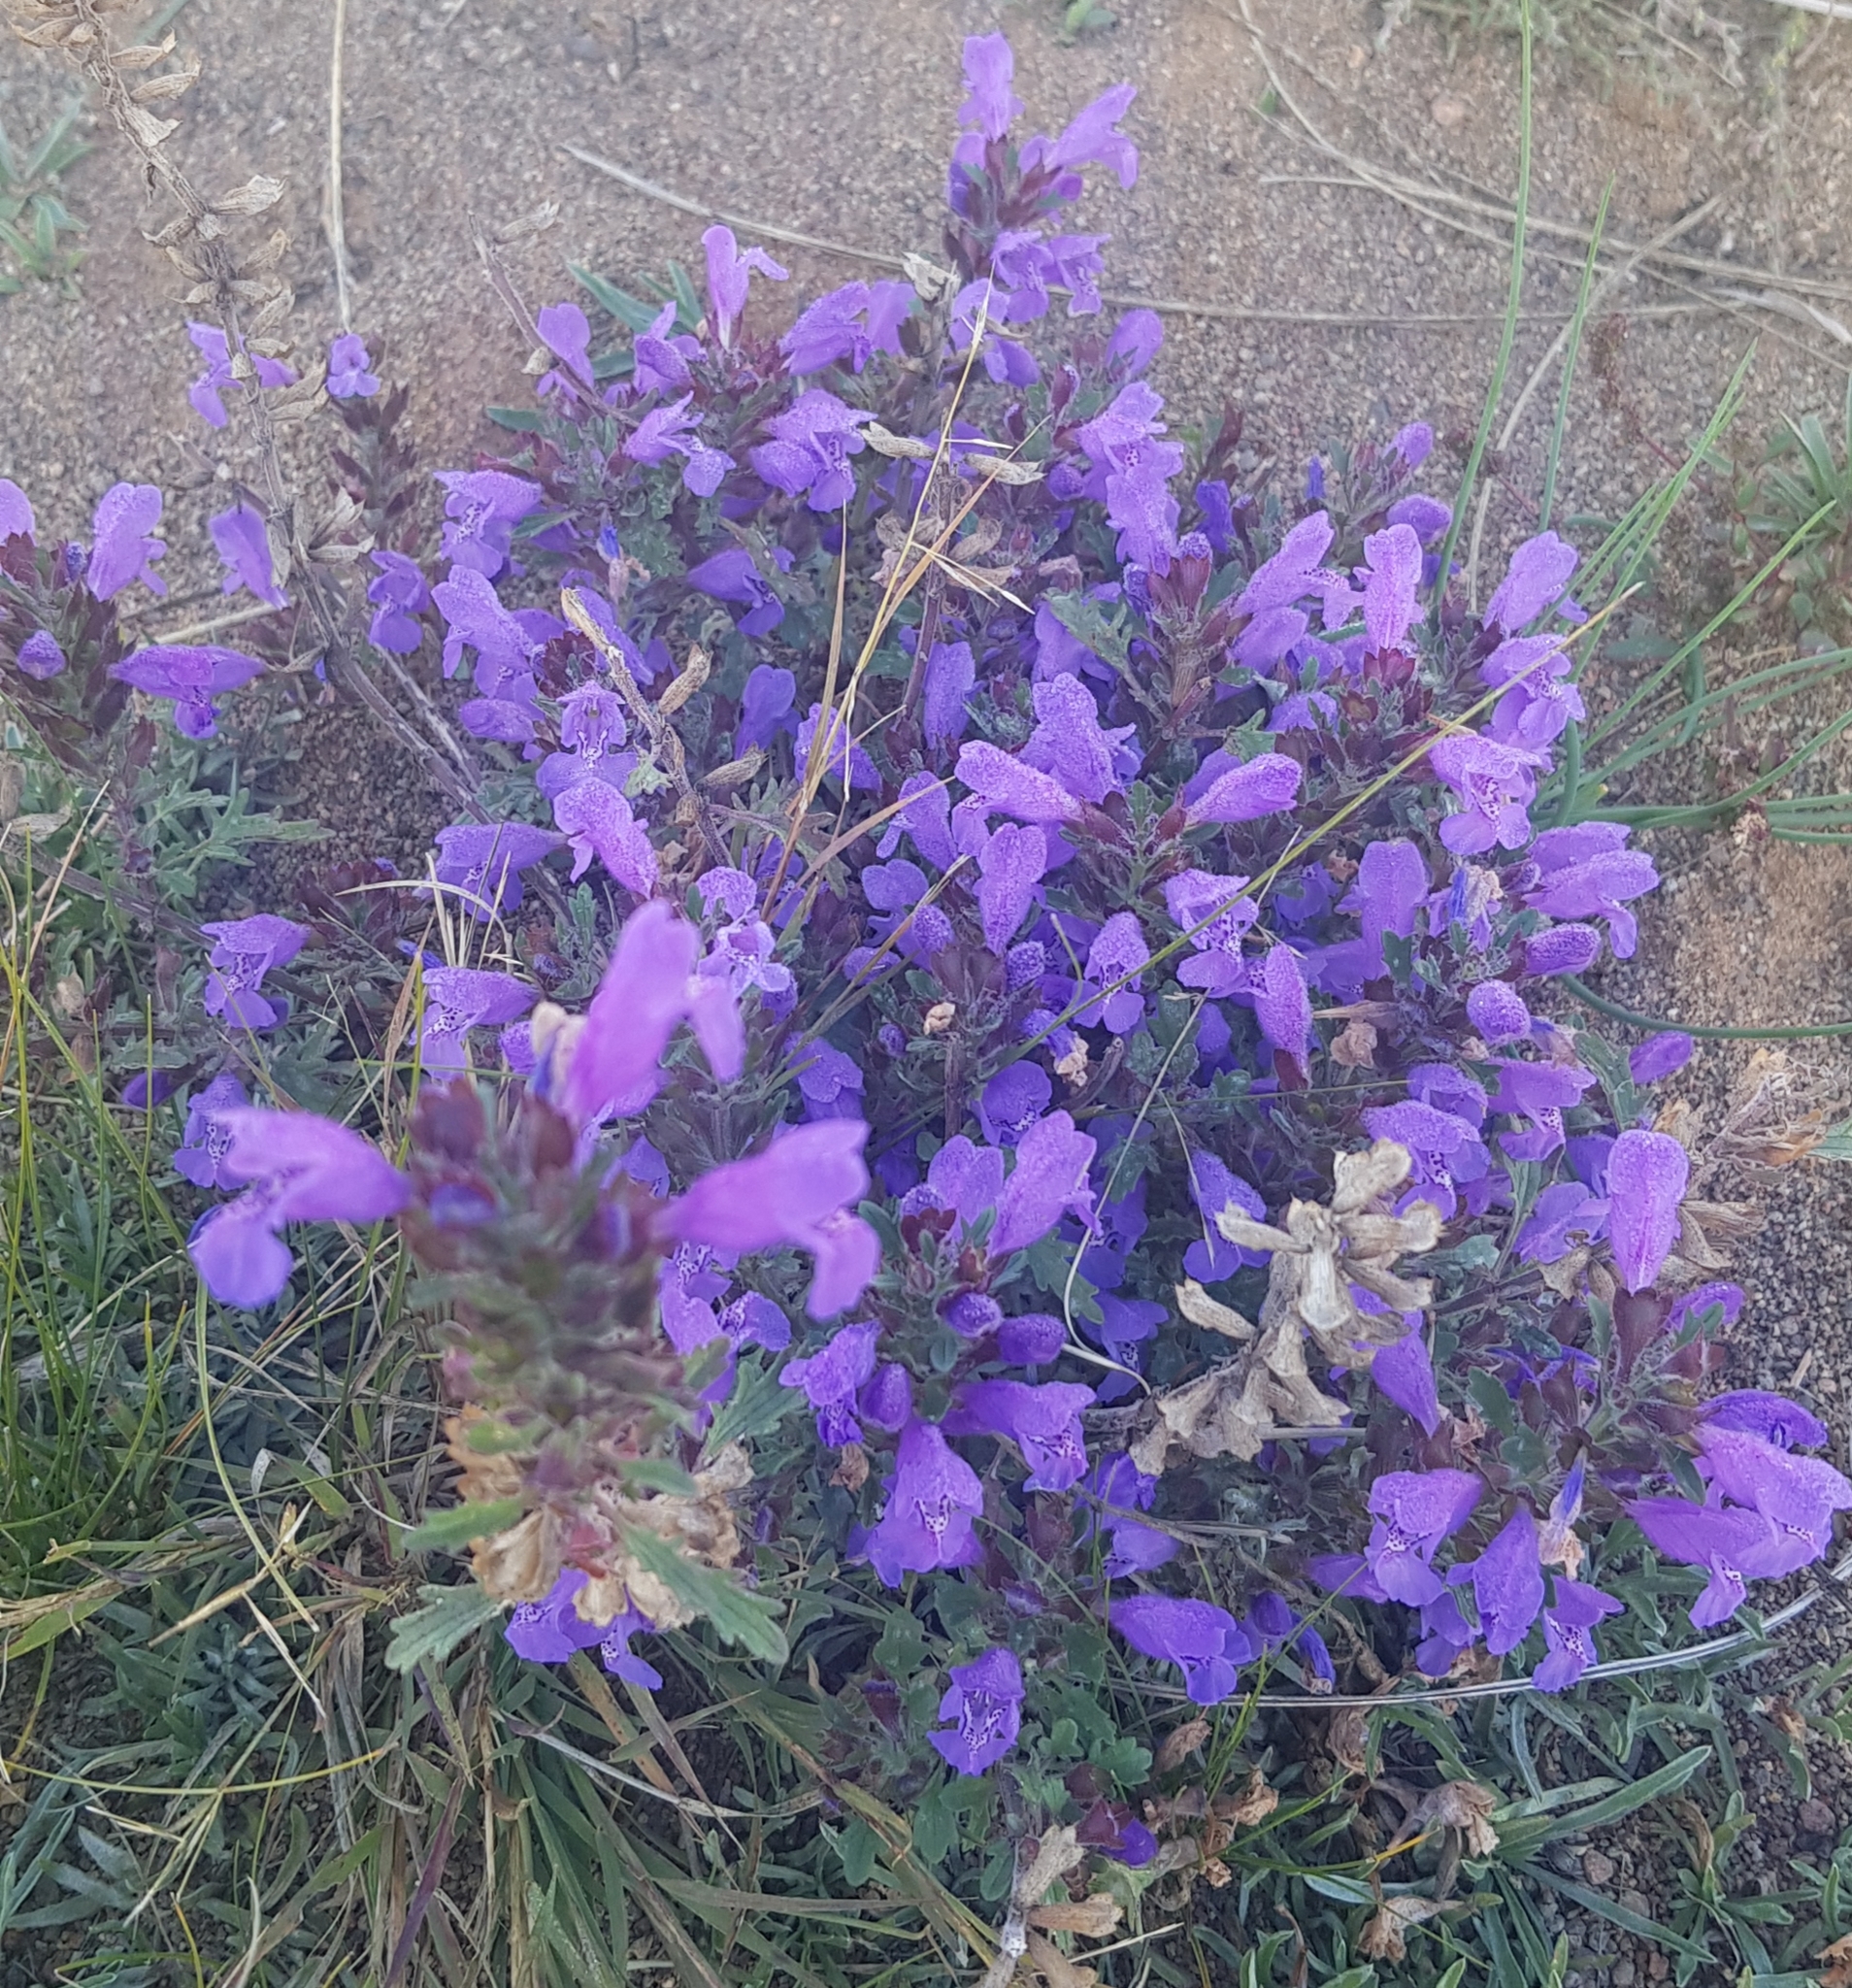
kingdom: Plantae
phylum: Tracheophyta
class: Magnoliopsida
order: Lamiales
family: Lamiaceae
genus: Dracocephalum
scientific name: Dracocephalum foetidum
